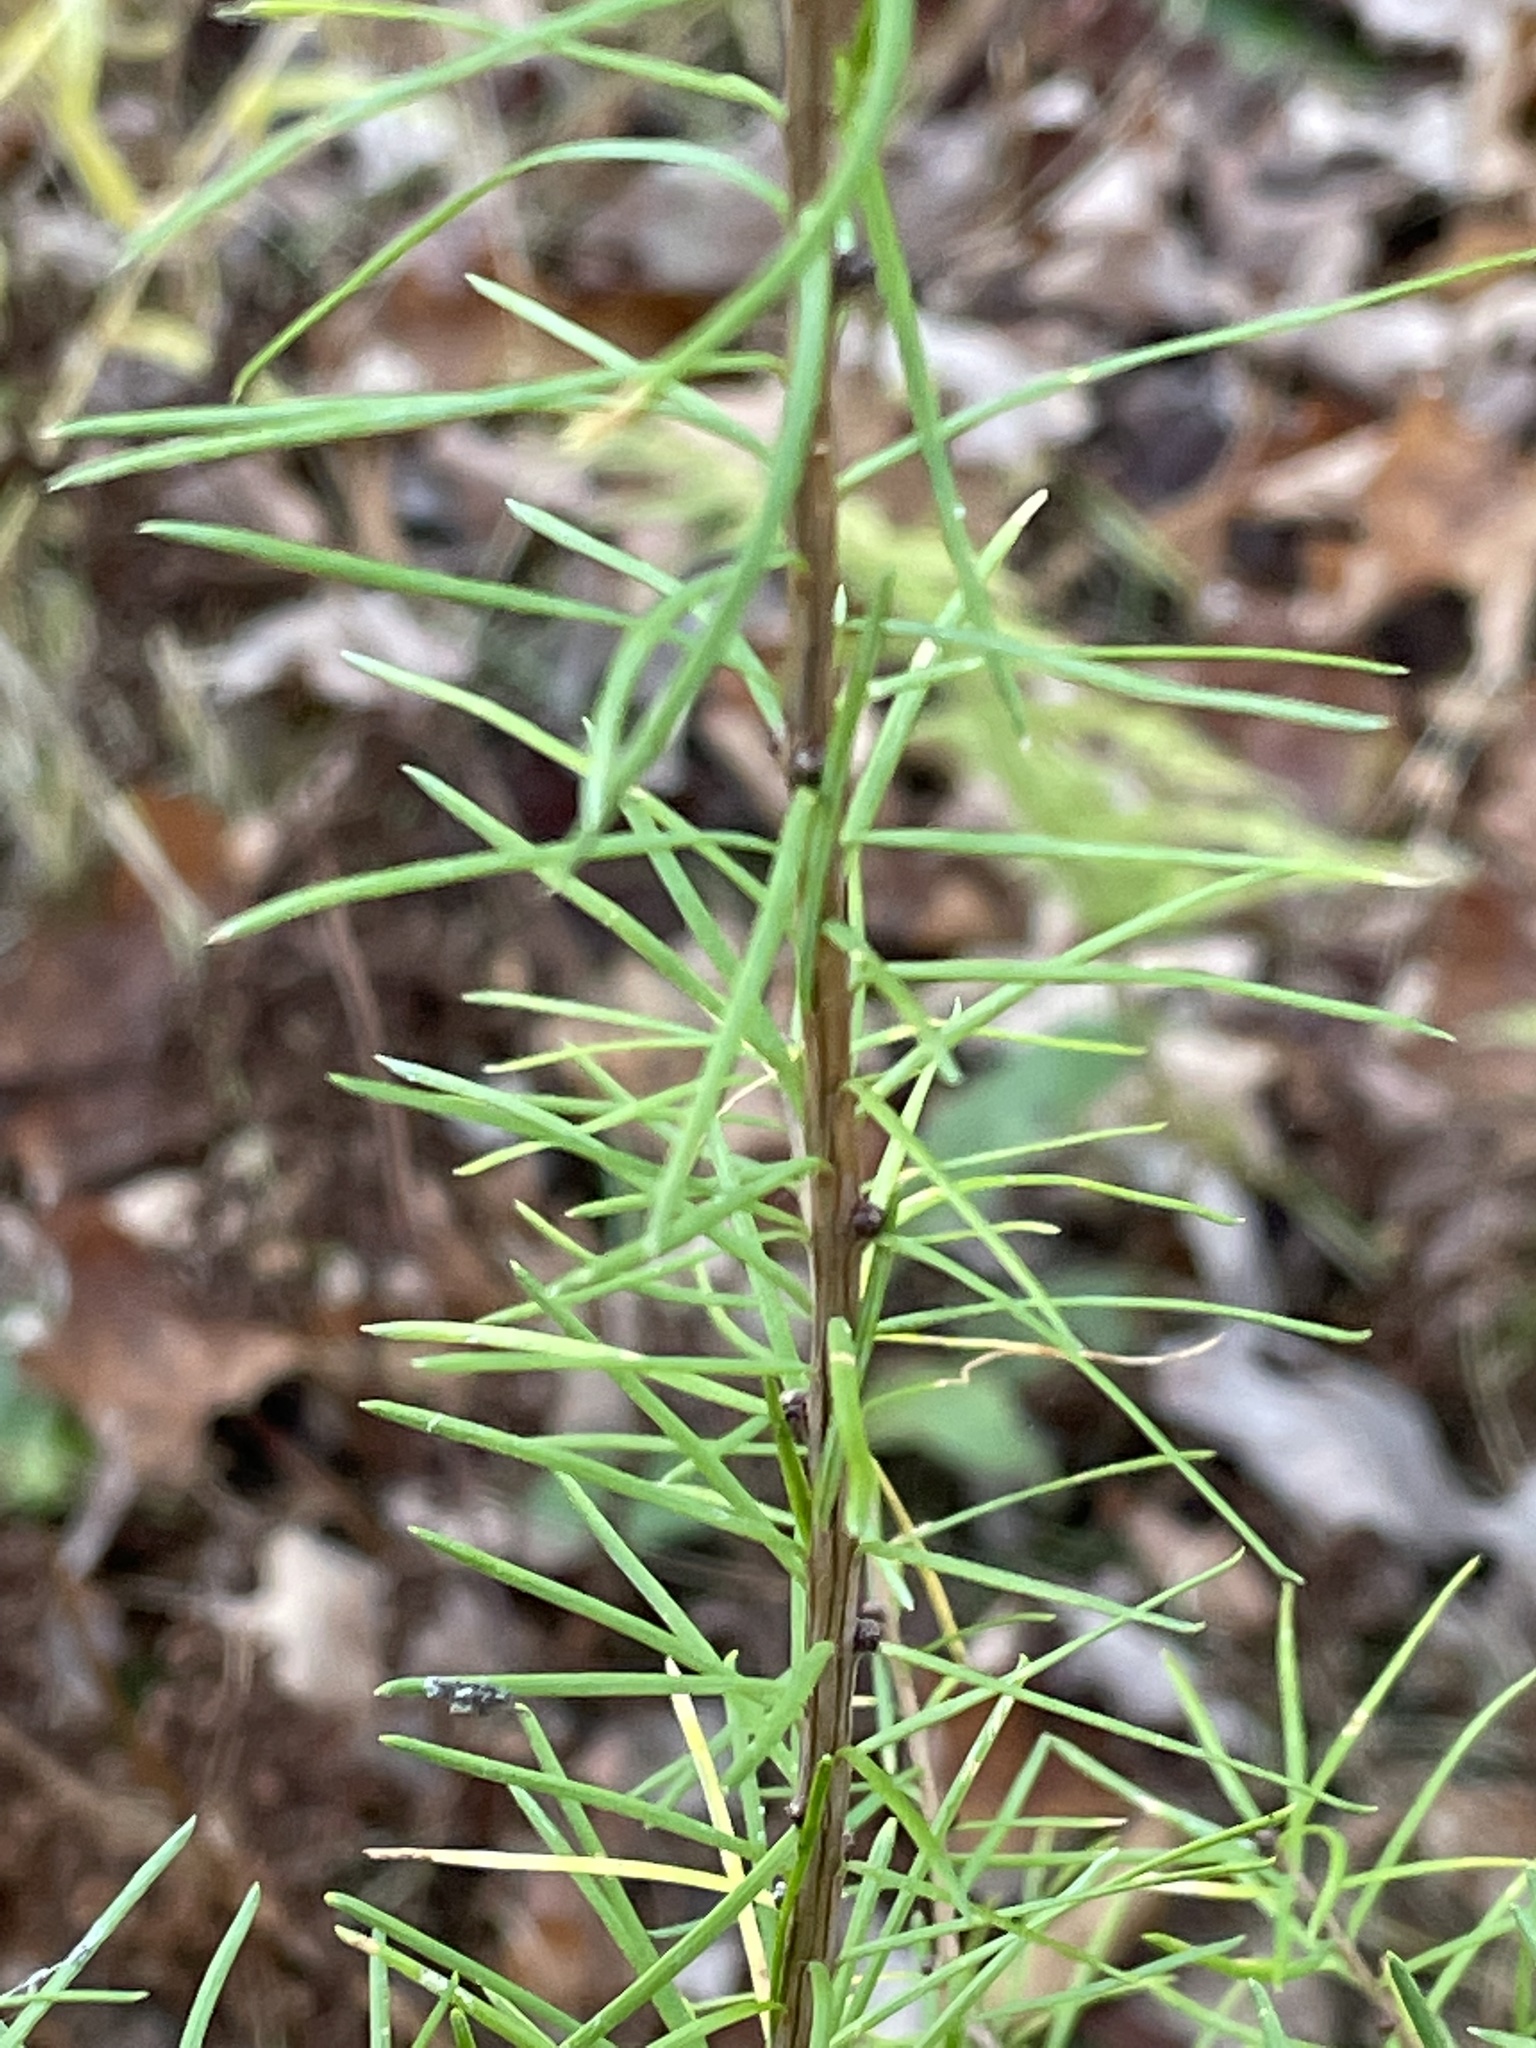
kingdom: Plantae
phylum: Tracheophyta
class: Pinopsida
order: Pinales
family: Pinaceae
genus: Larix
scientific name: Larix laricina
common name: American larch
